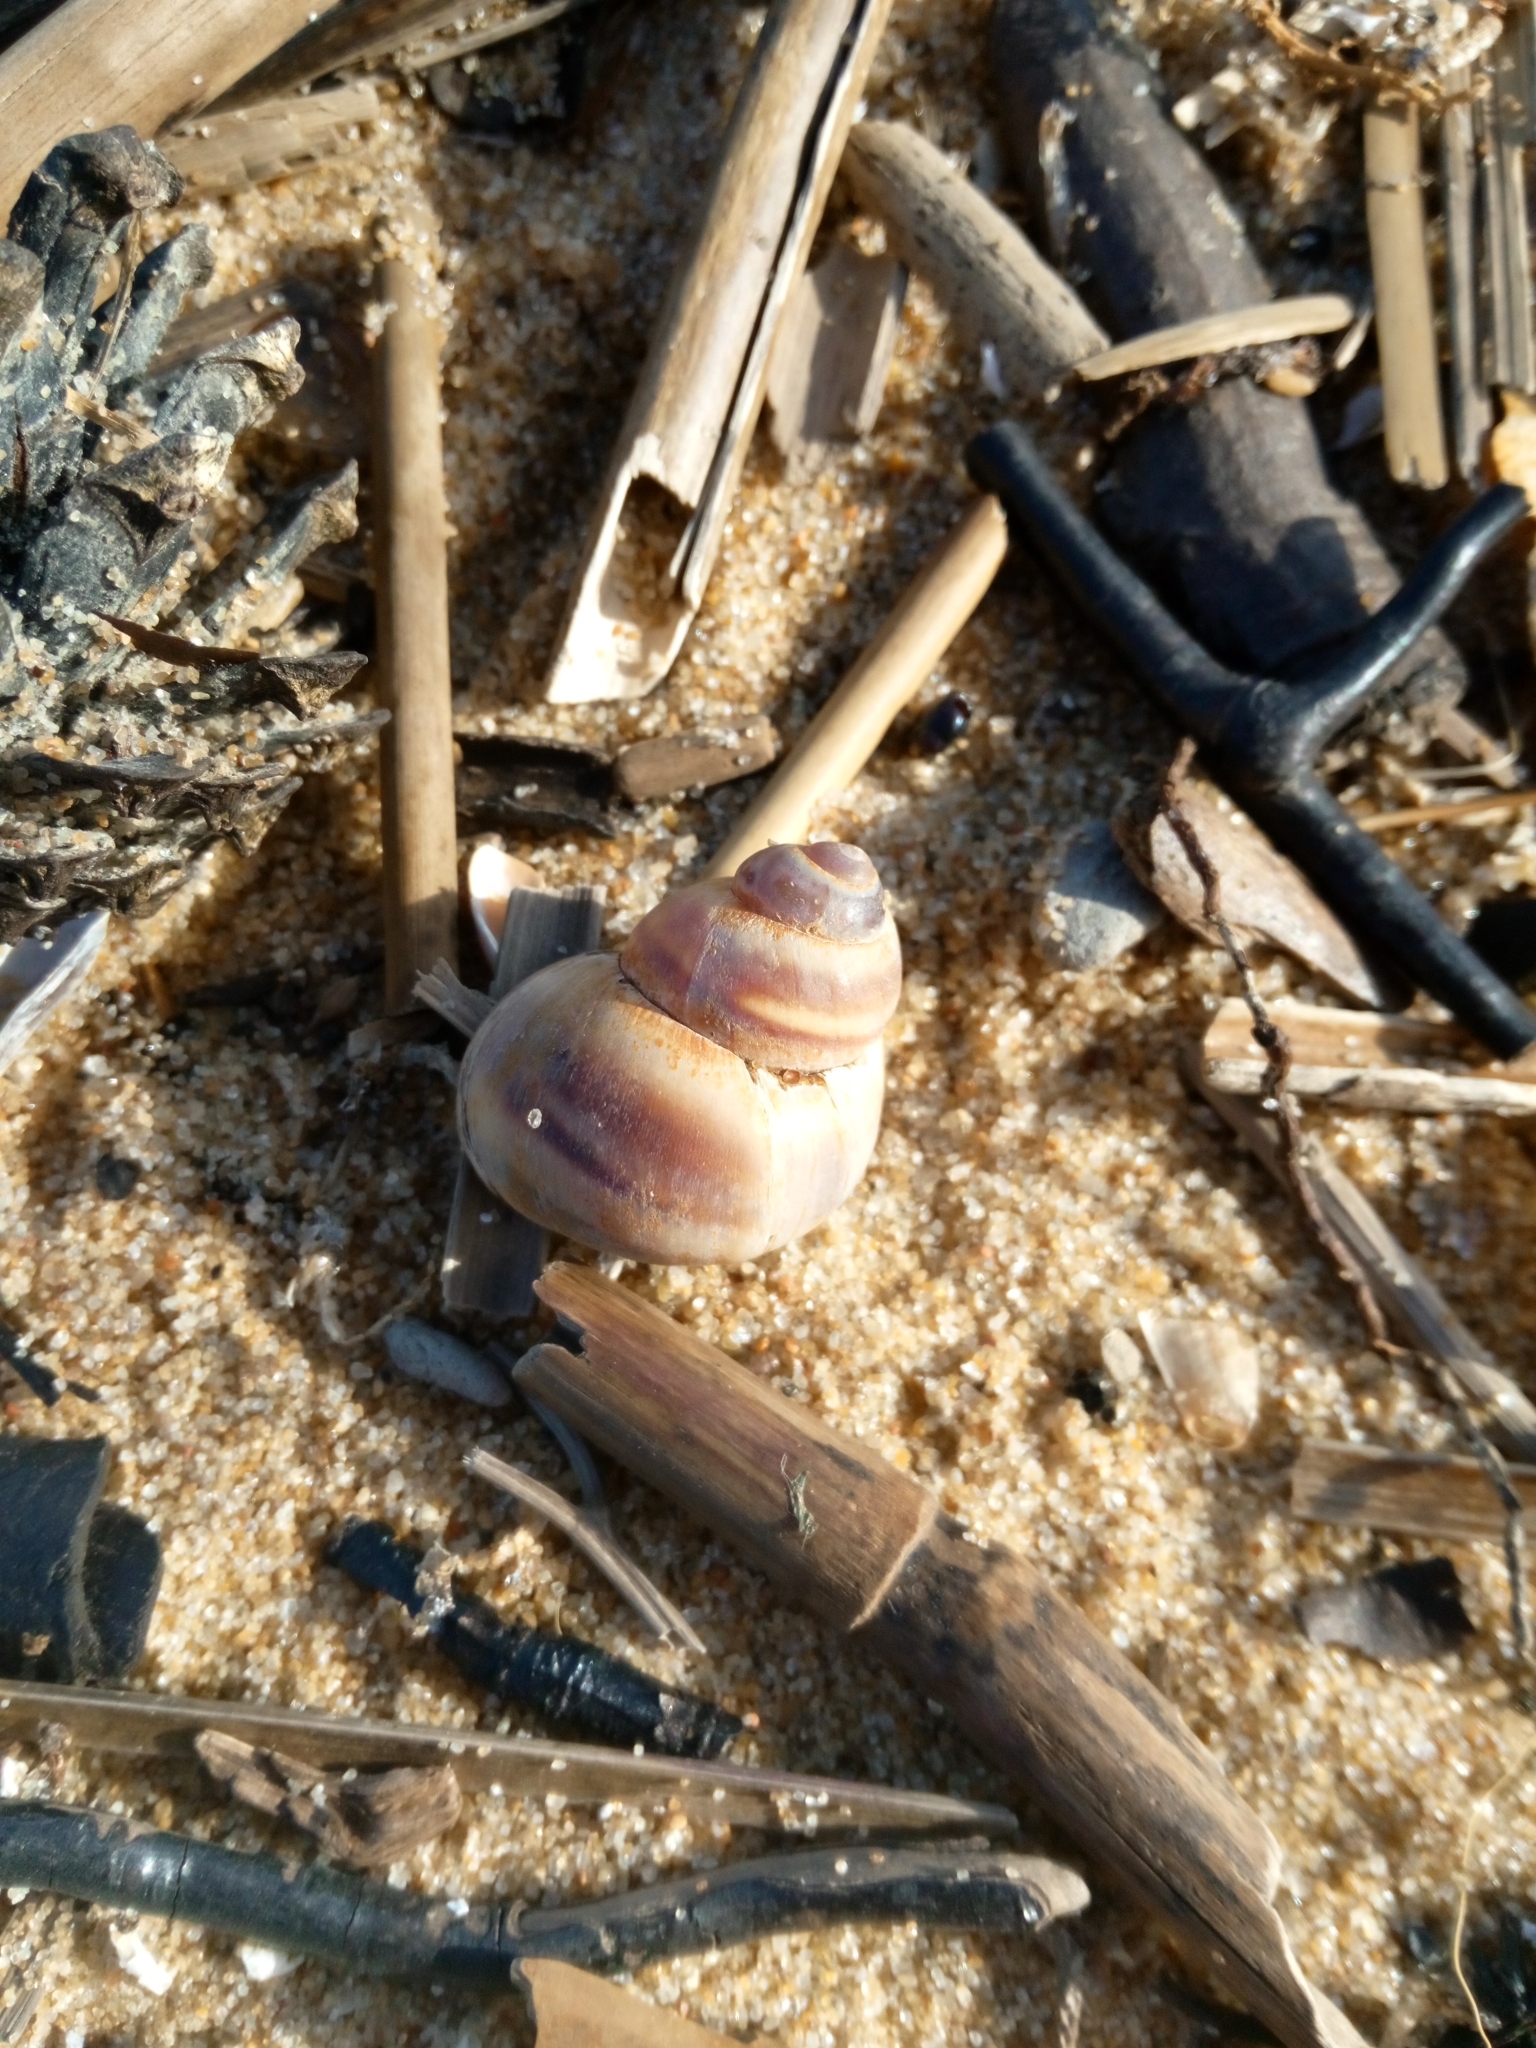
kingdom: Animalia
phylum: Mollusca
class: Gastropoda
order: Architaenioglossa
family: Viviparidae
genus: Viviparus
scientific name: Viviparus viviparus
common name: River snail
